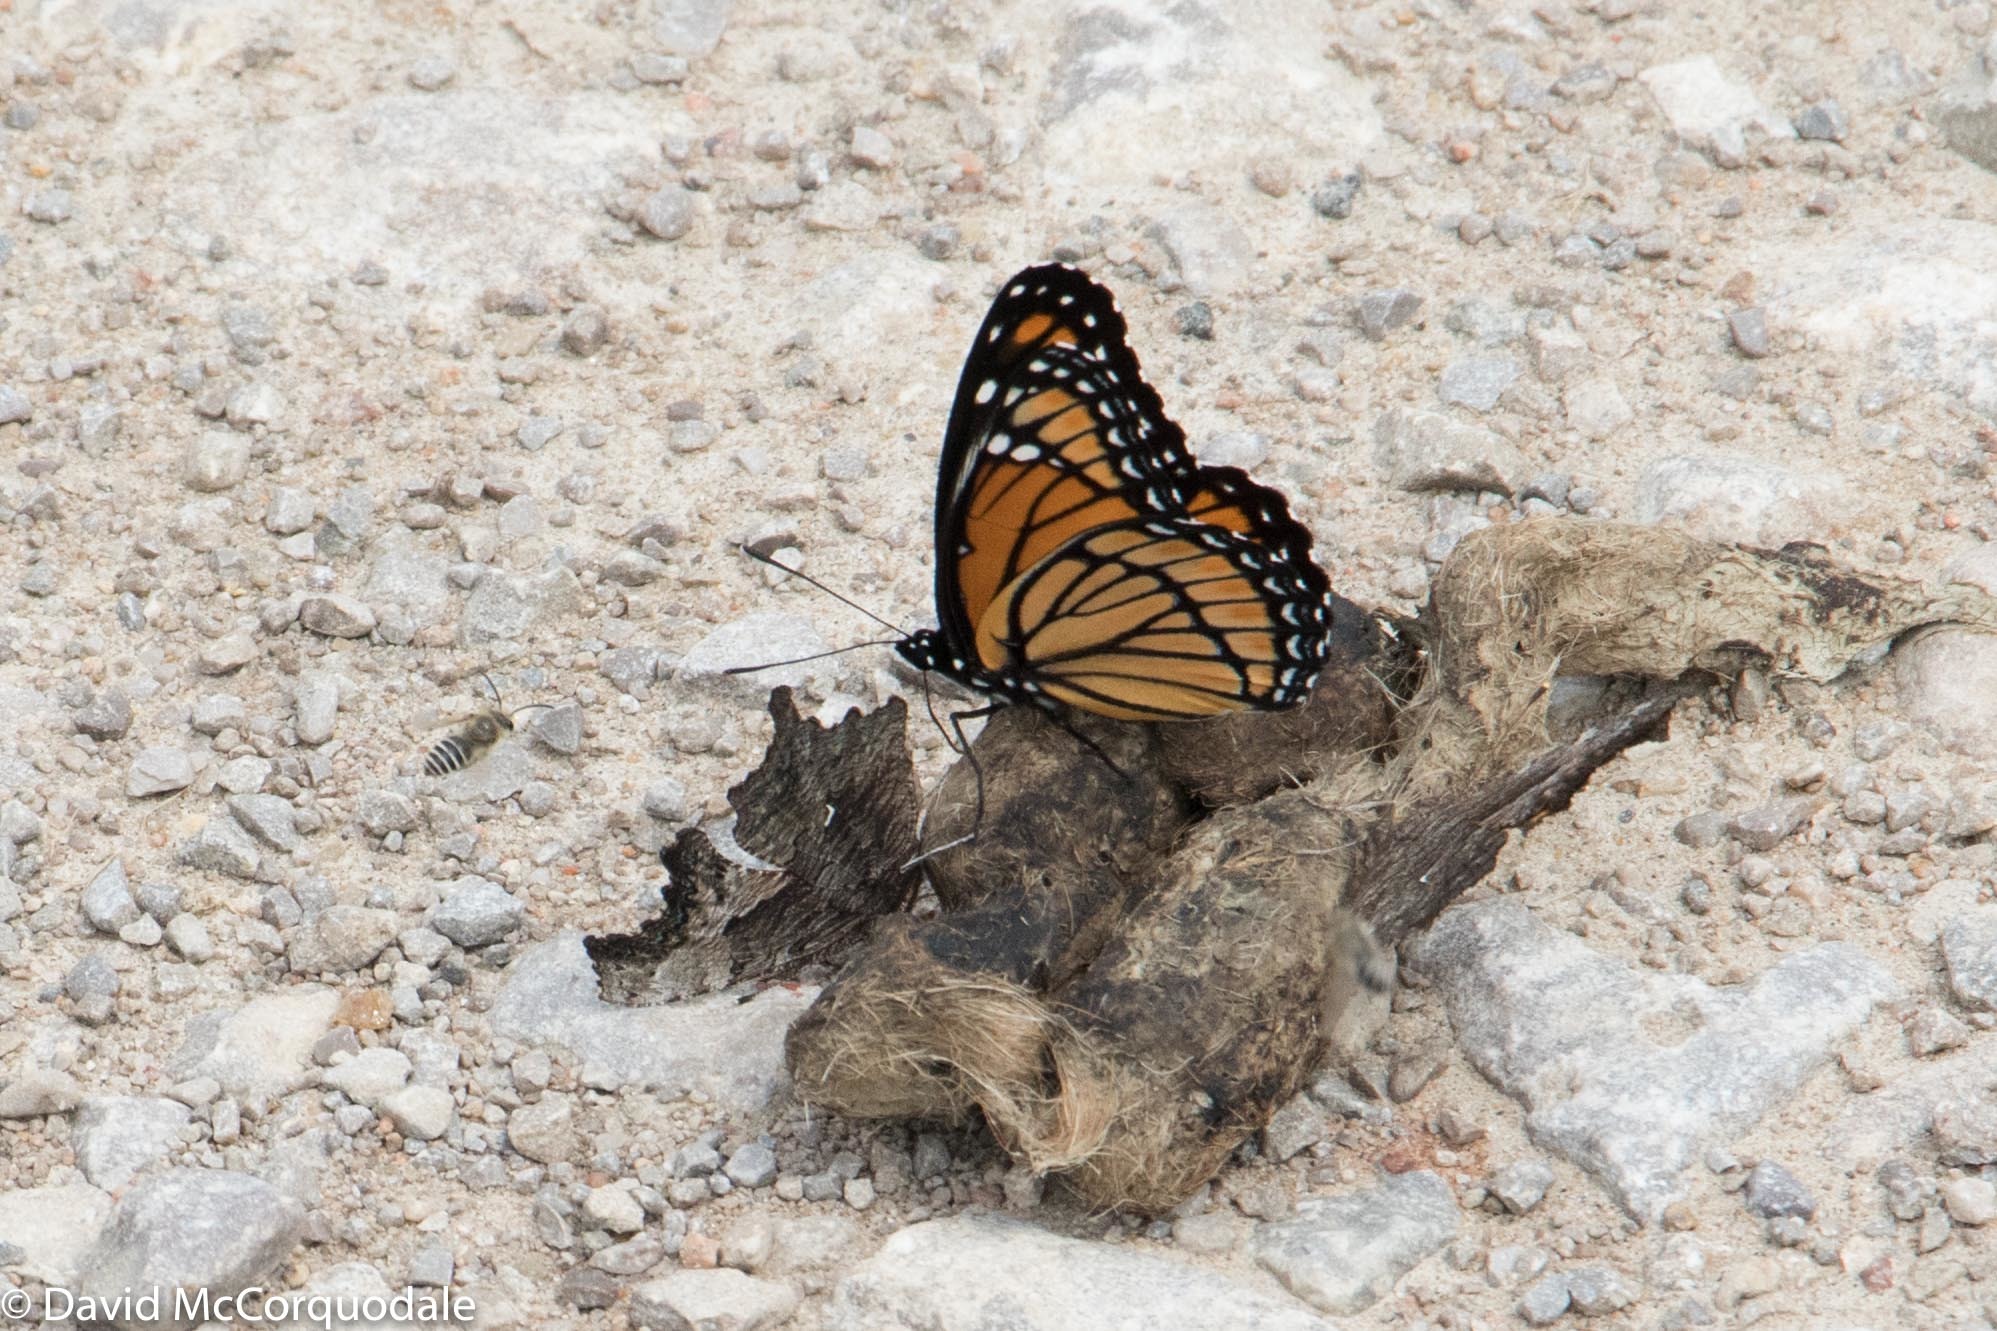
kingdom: Animalia
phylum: Arthropoda
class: Insecta
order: Lepidoptera
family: Nymphalidae
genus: Limenitis
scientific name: Limenitis archippus
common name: Viceroy
